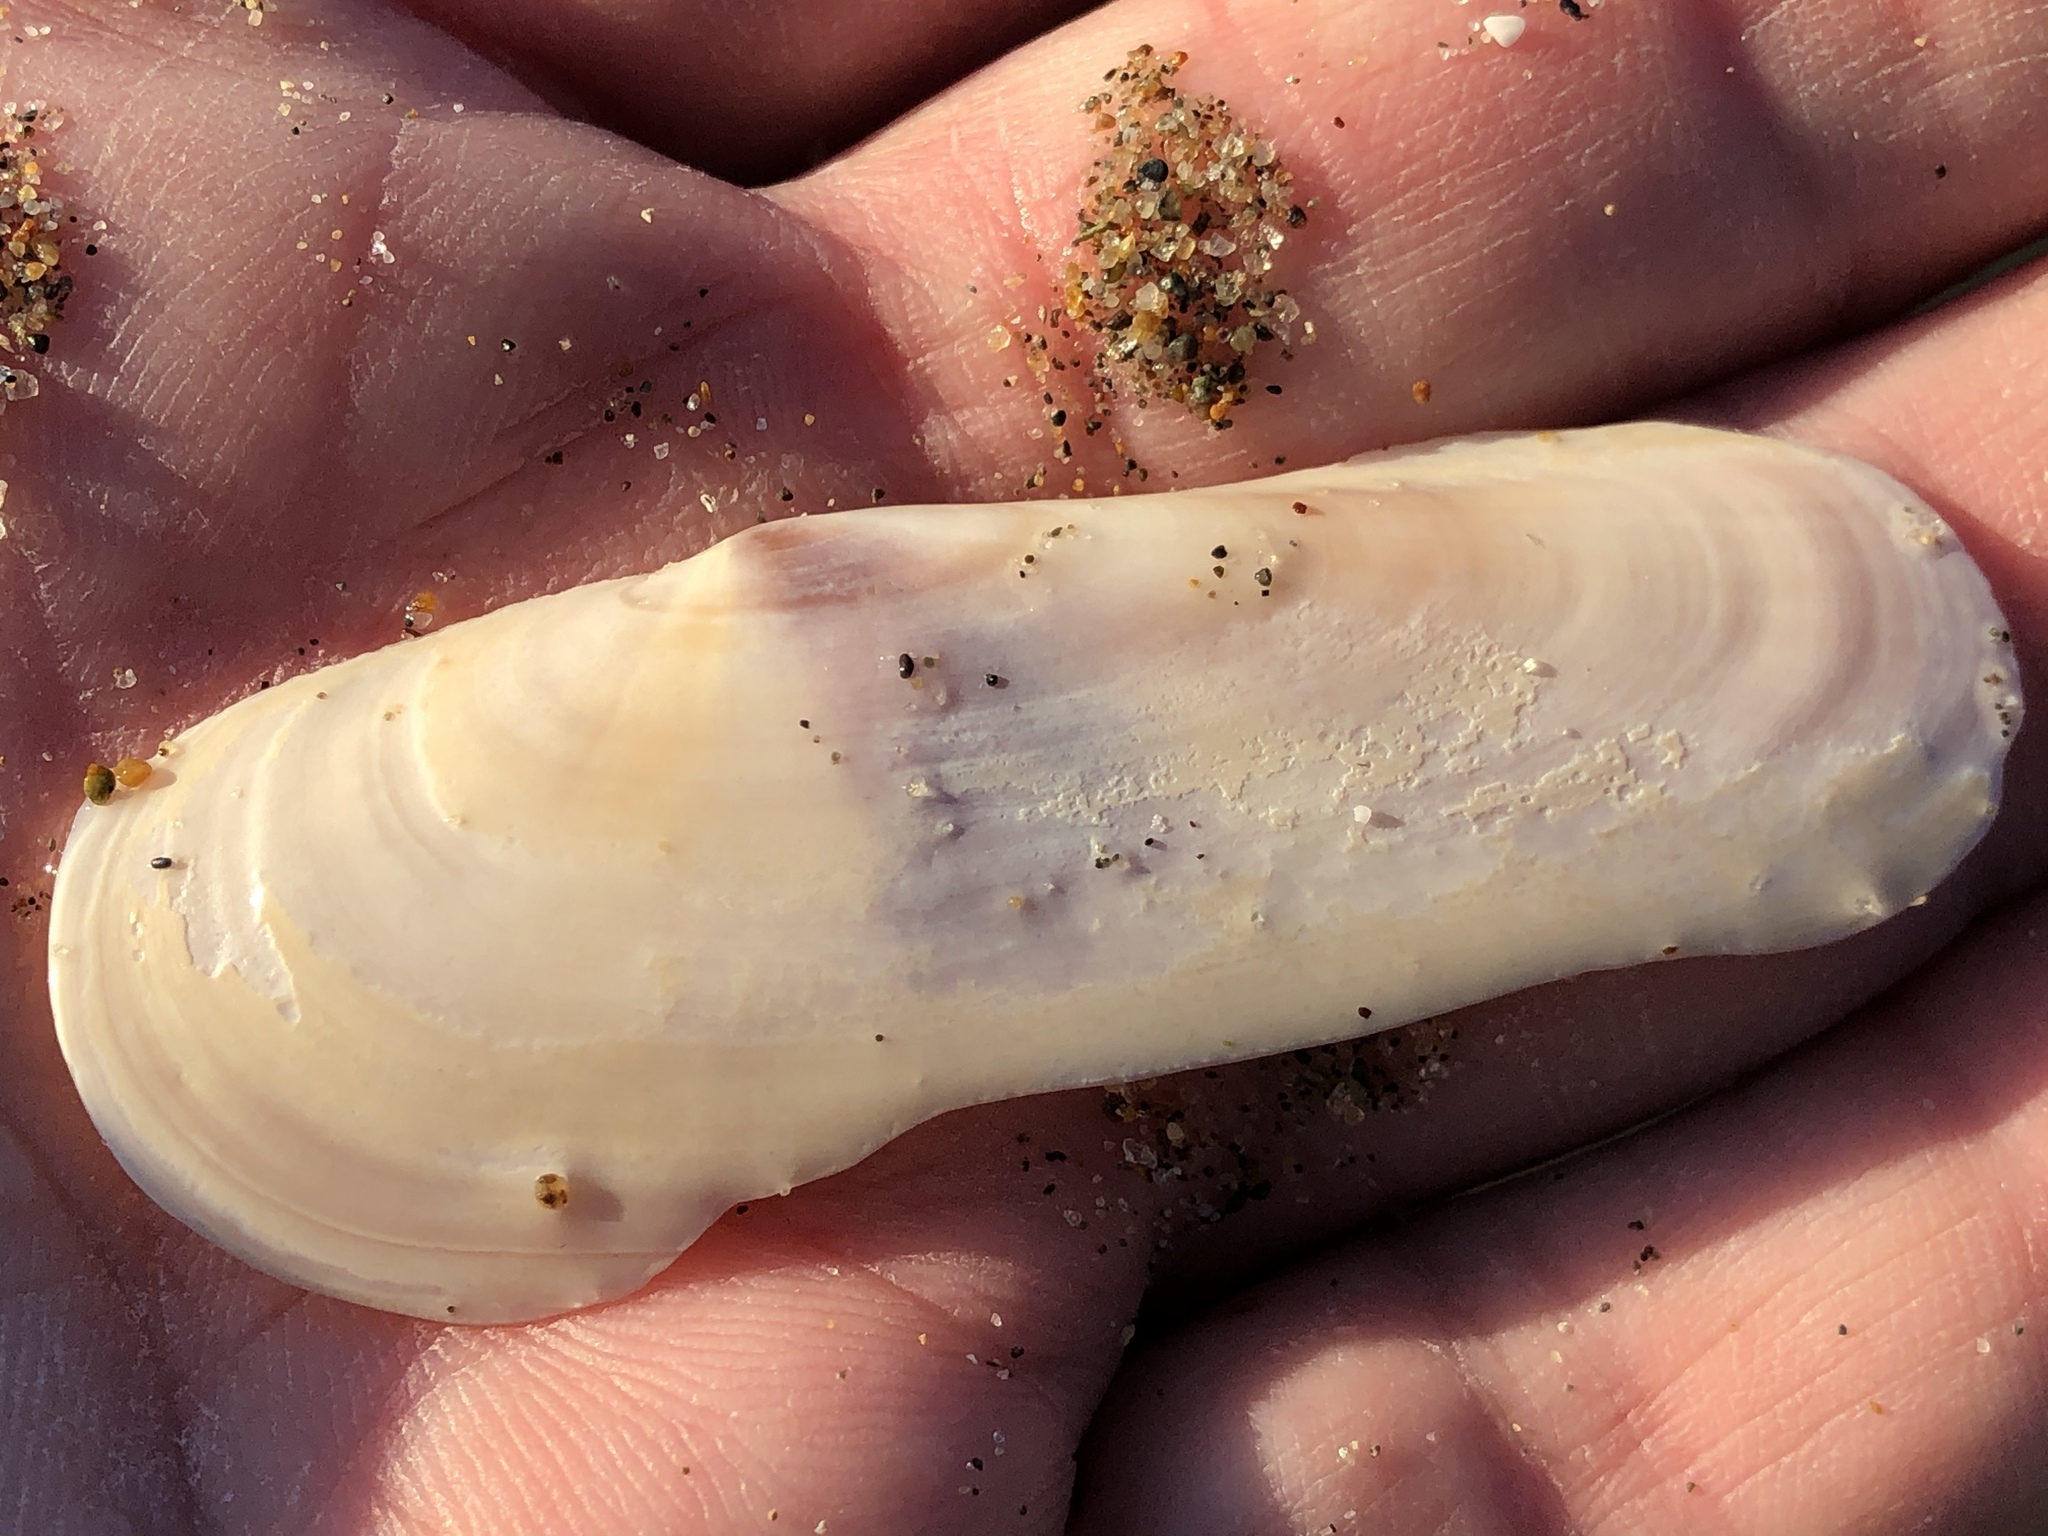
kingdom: Animalia
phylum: Mollusca
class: Bivalvia
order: Adapedonta
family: Pharidae
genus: Siliqua
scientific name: Siliqua patula
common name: Pacific razor clam
